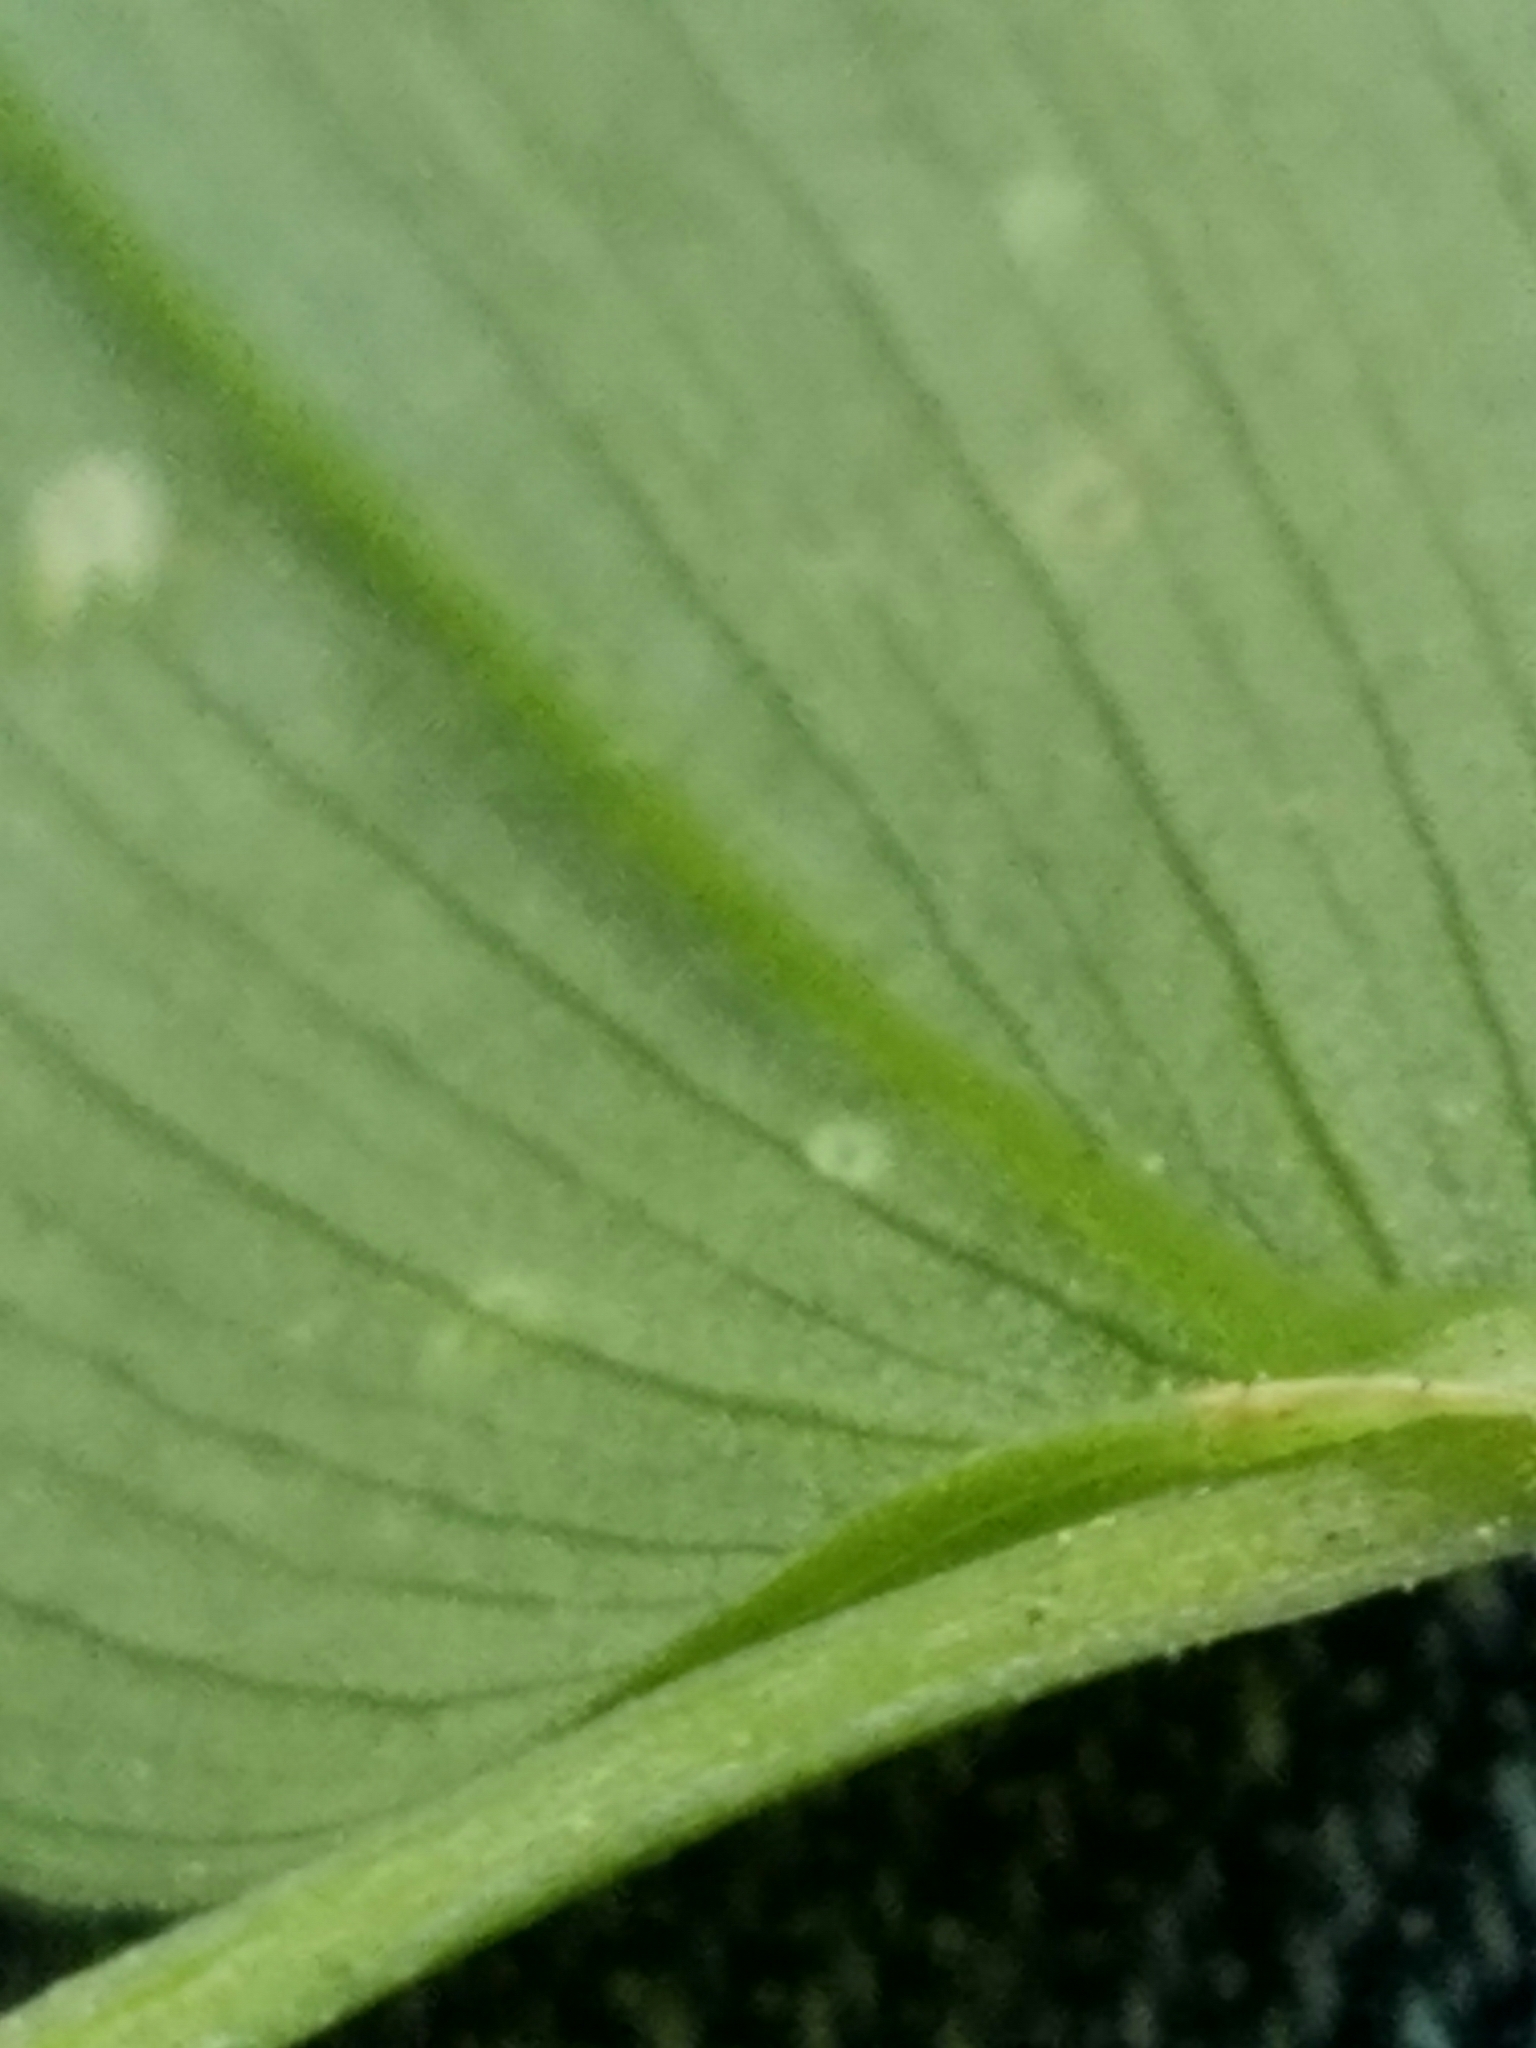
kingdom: Plantae
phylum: Tracheophyta
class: Liliopsida
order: Liliales
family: Colchicaceae
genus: Uvularia
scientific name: Uvularia puberula
